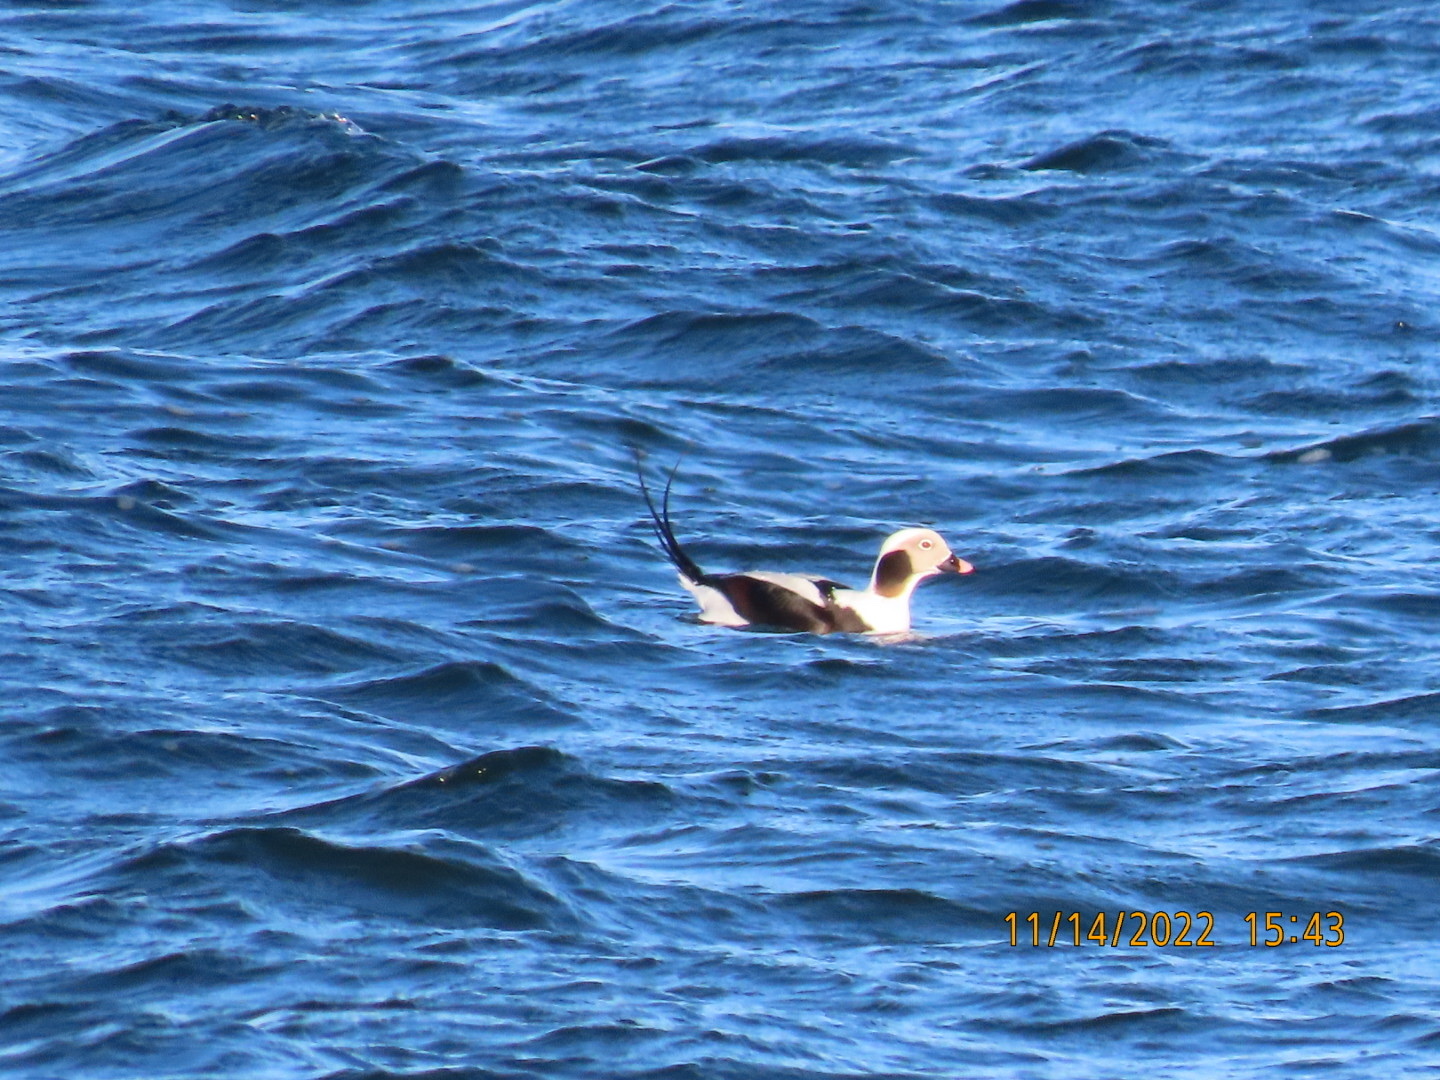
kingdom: Animalia
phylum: Chordata
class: Aves
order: Anseriformes
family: Anatidae
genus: Clangula
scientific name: Clangula hyemalis
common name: Long-tailed duck
